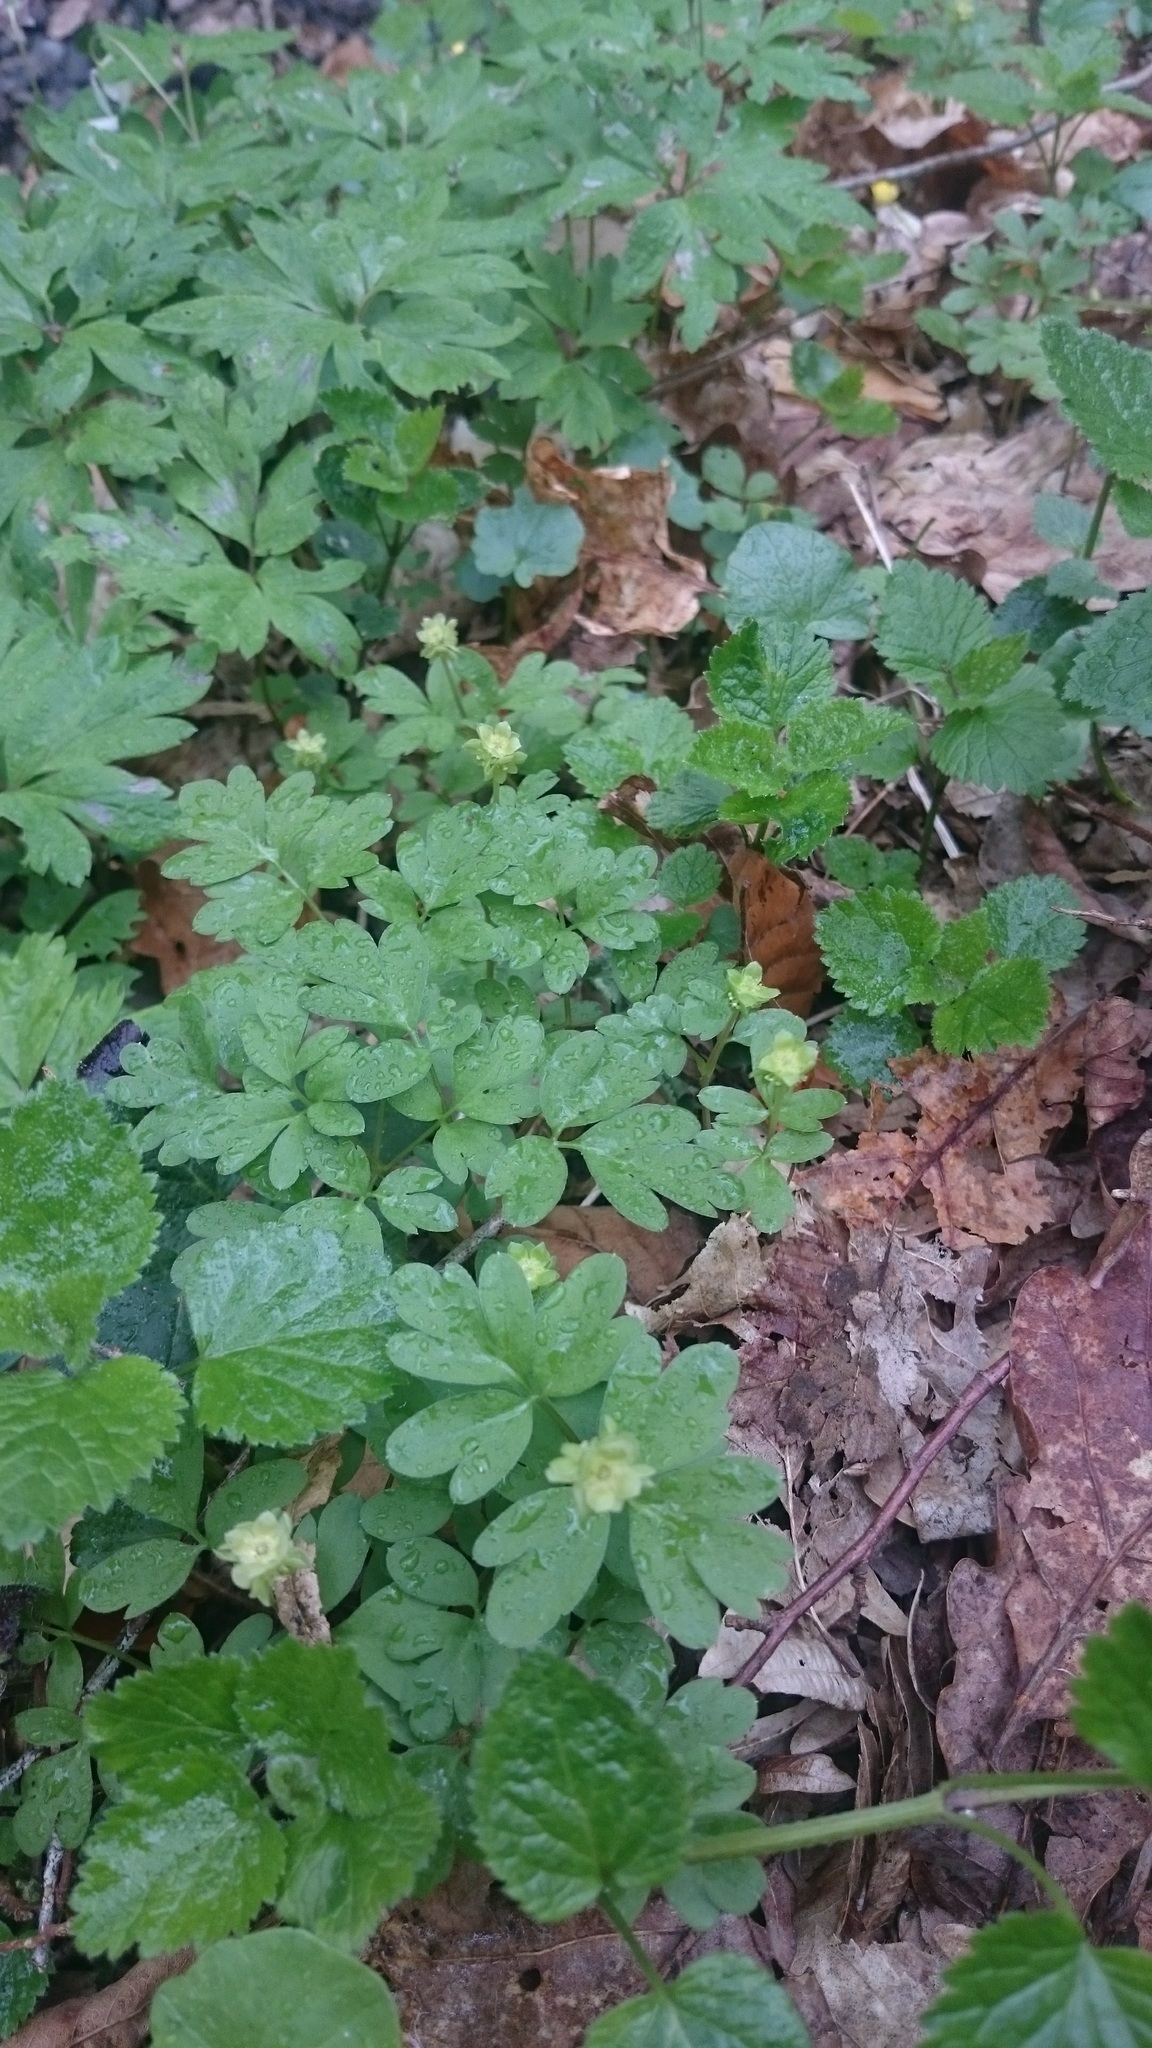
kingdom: Plantae
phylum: Tracheophyta
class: Magnoliopsida
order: Dipsacales
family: Viburnaceae
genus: Adoxa
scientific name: Adoxa moschatellina
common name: Moschatel
